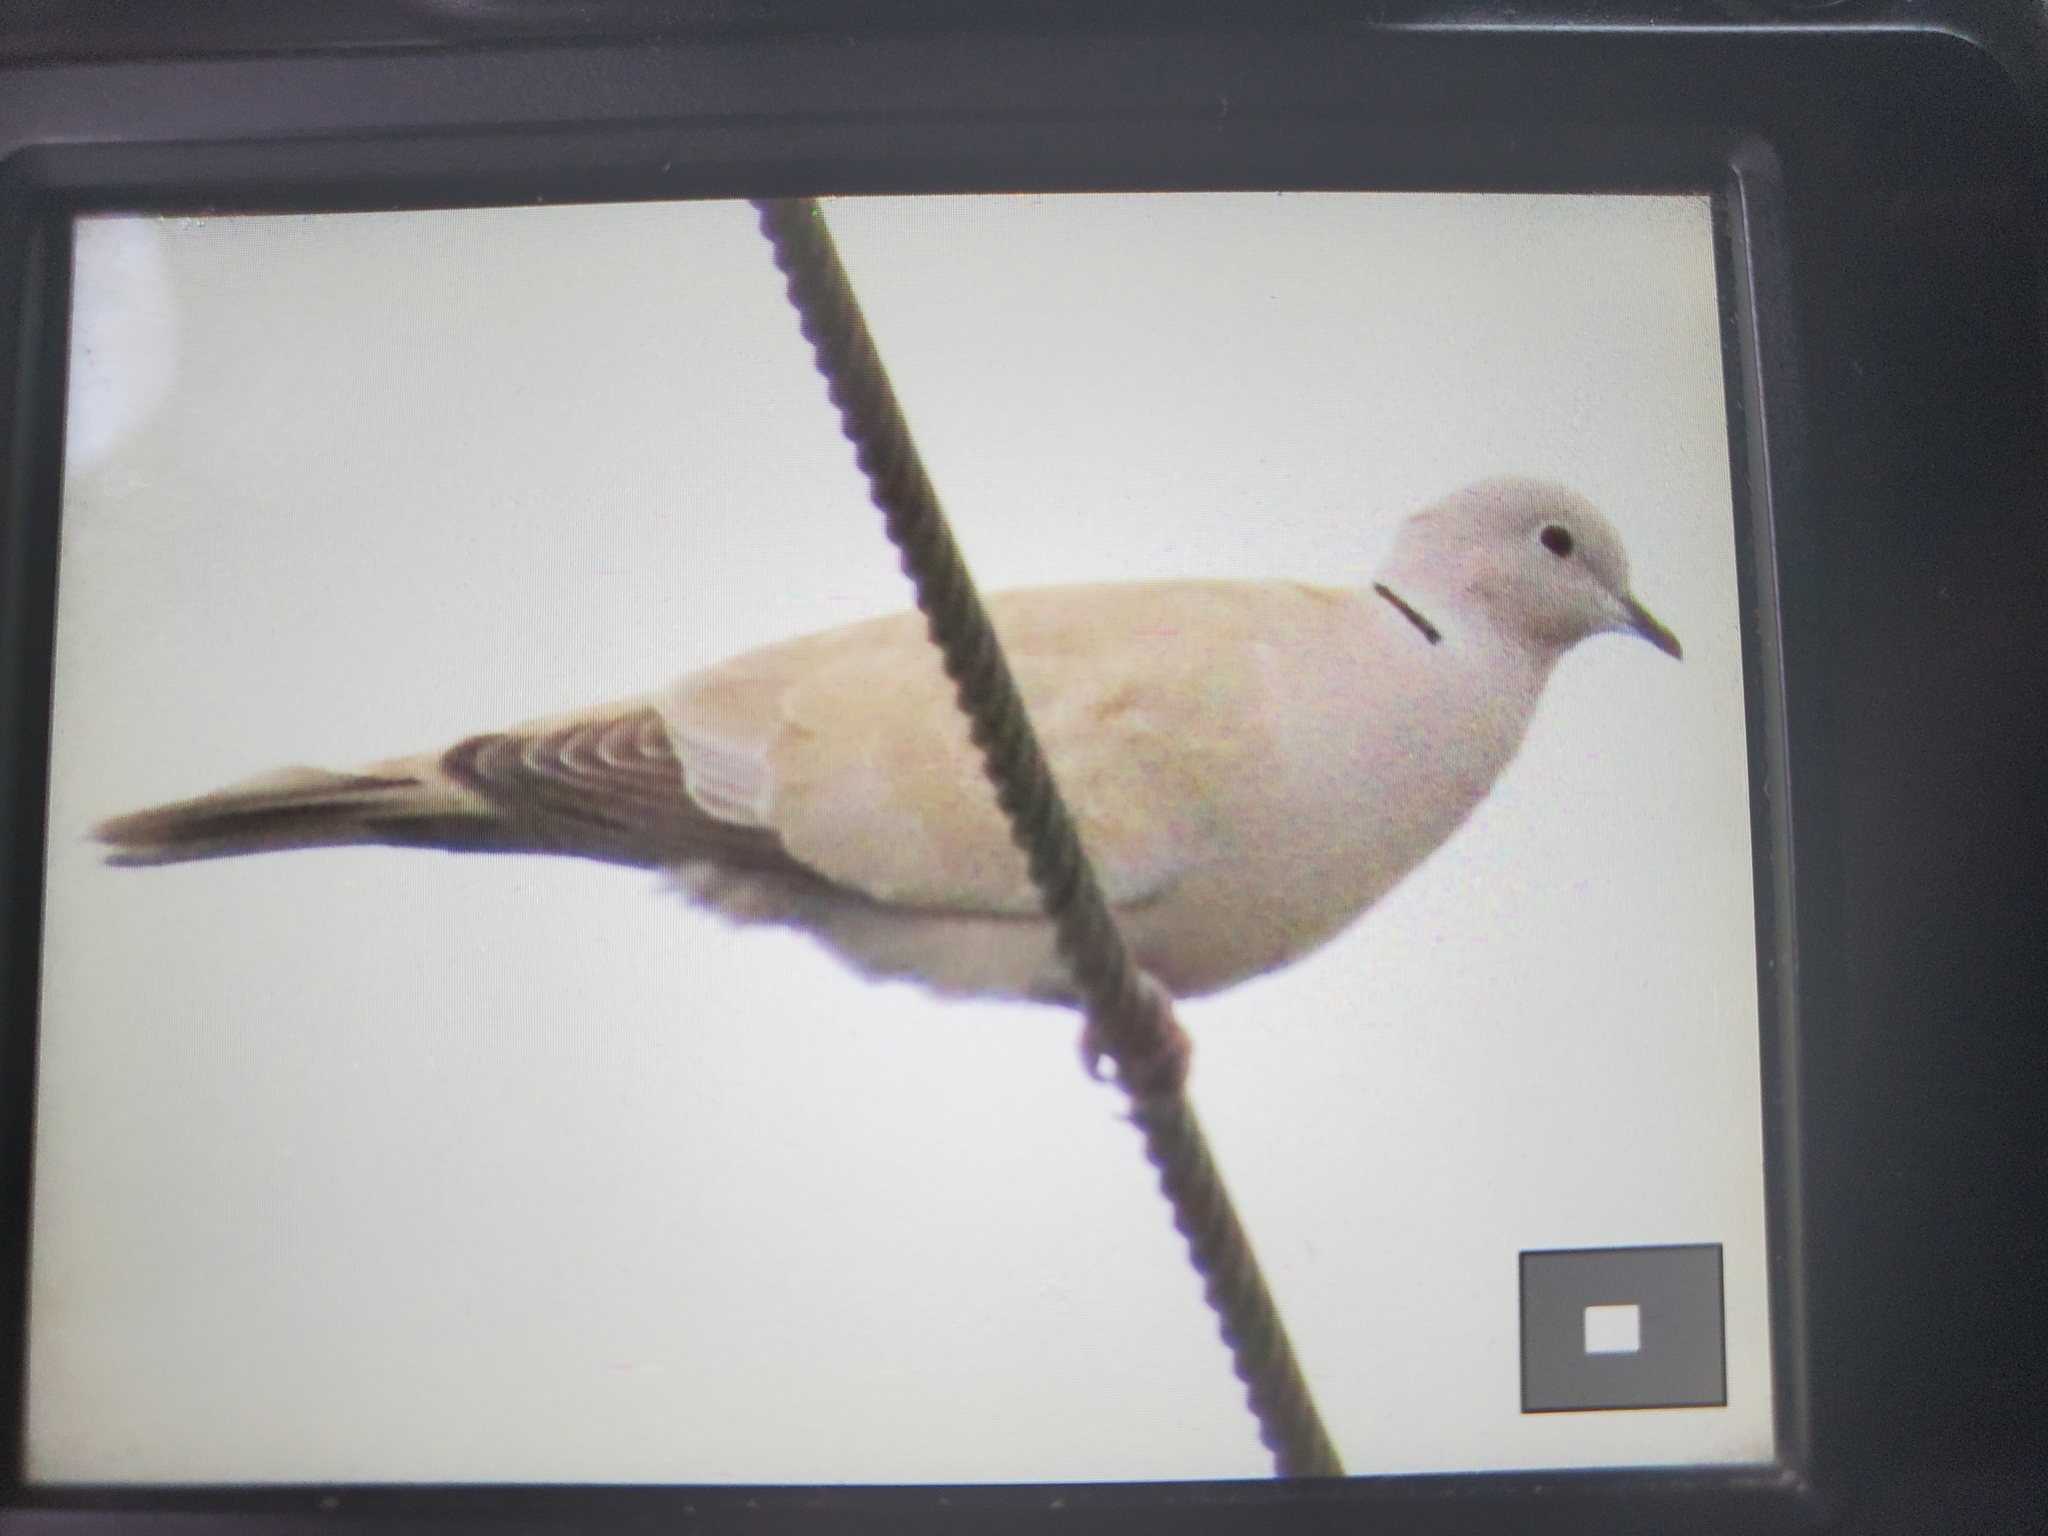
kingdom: Animalia
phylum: Chordata
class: Aves
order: Columbiformes
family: Columbidae
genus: Streptopelia
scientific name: Streptopelia decaocto
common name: Eurasian collared dove
